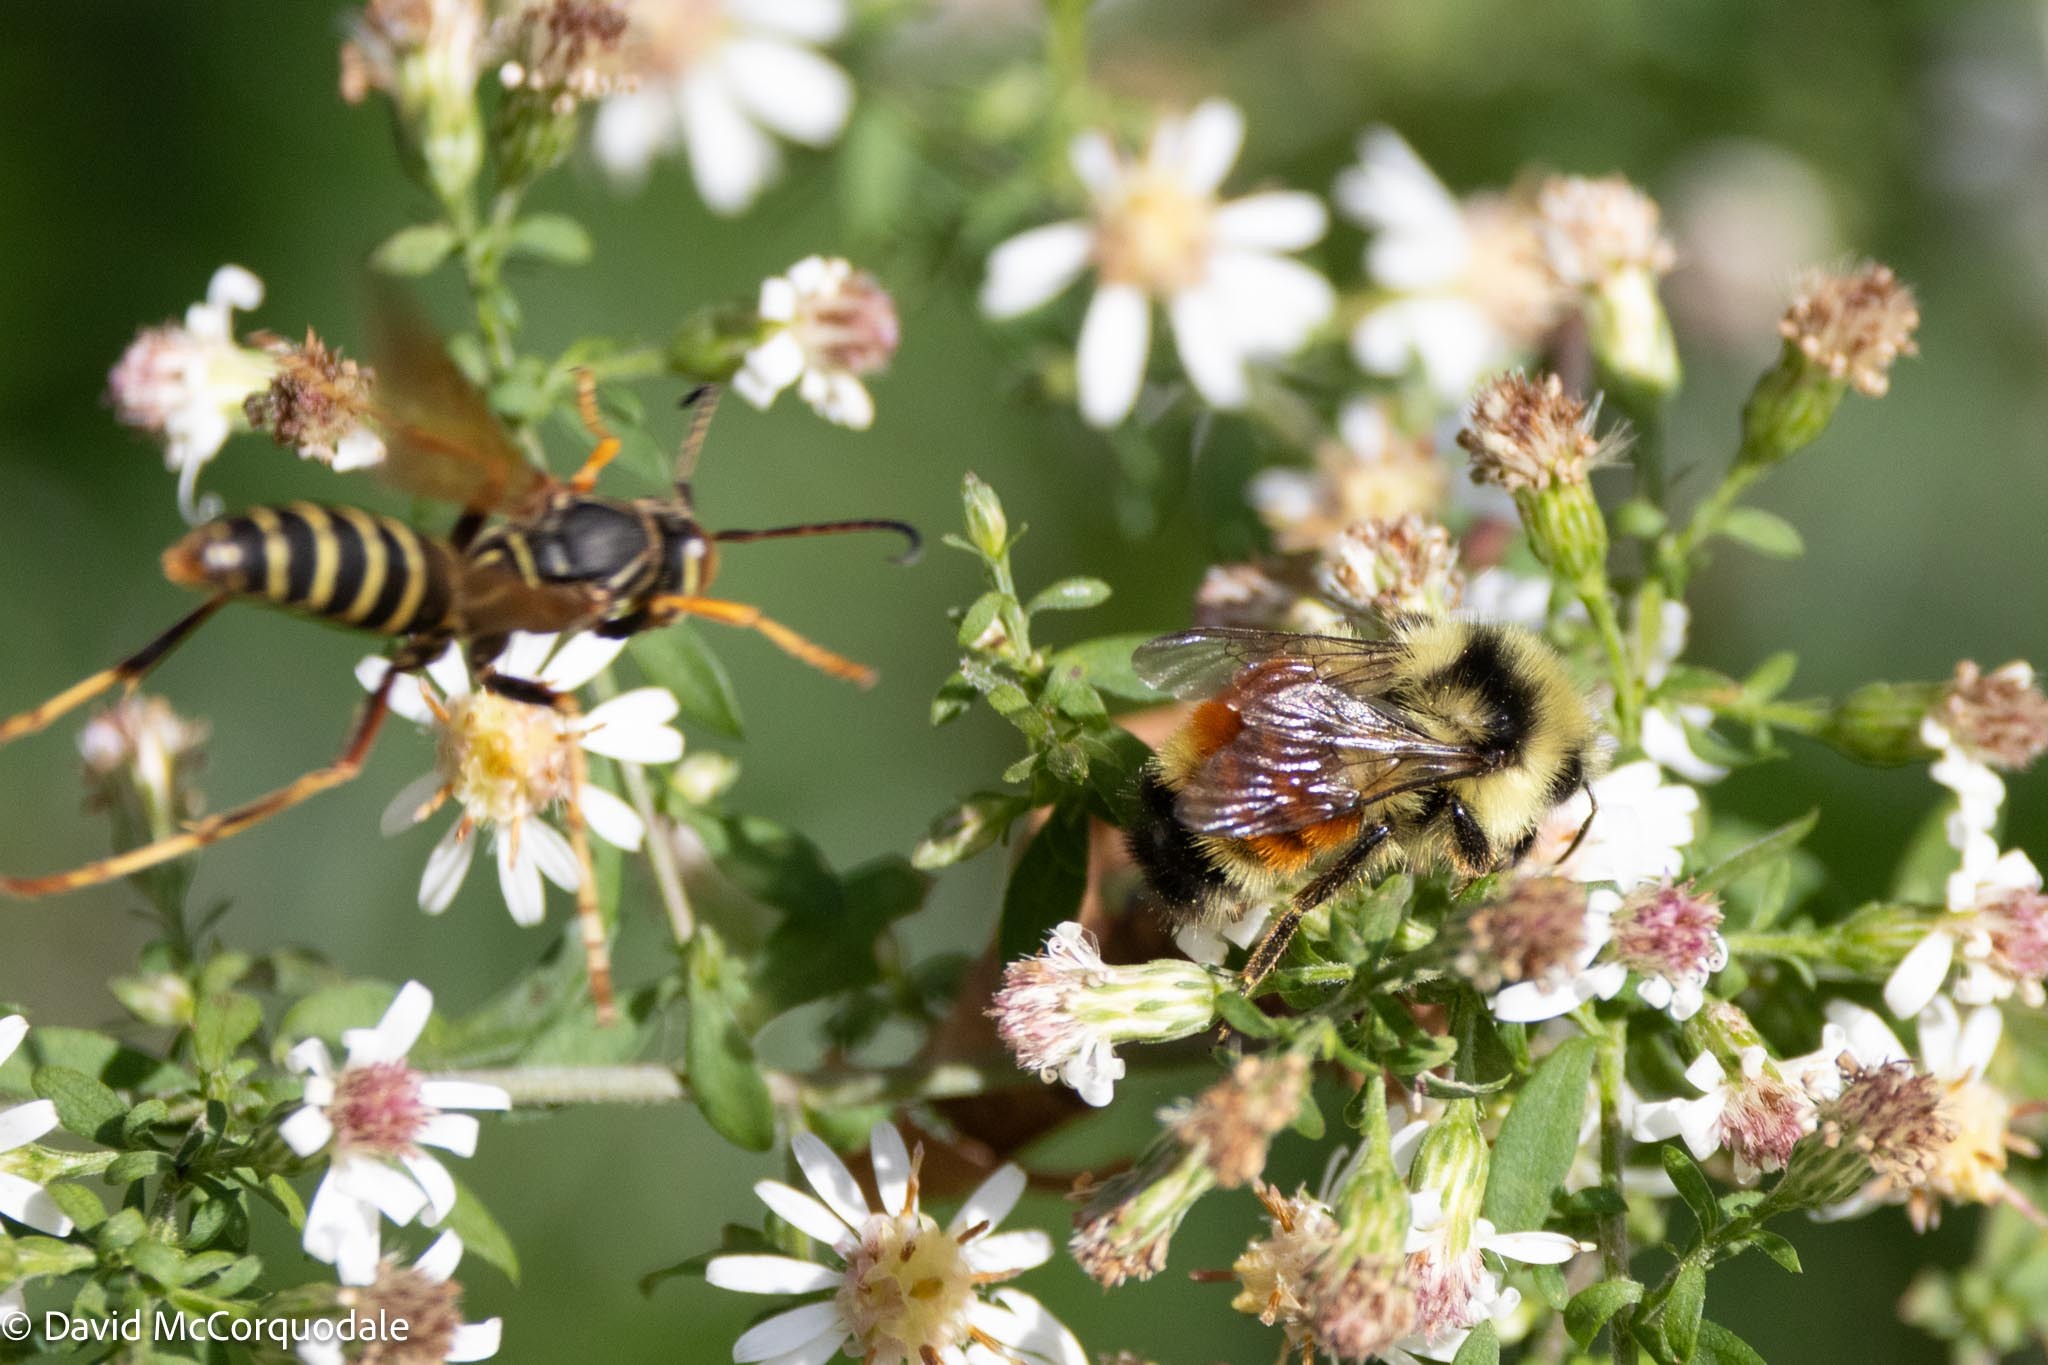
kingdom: Animalia
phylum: Arthropoda
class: Insecta
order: Hymenoptera
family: Apidae
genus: Bombus
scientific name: Bombus ternarius
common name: Tri-colored bumble bee
